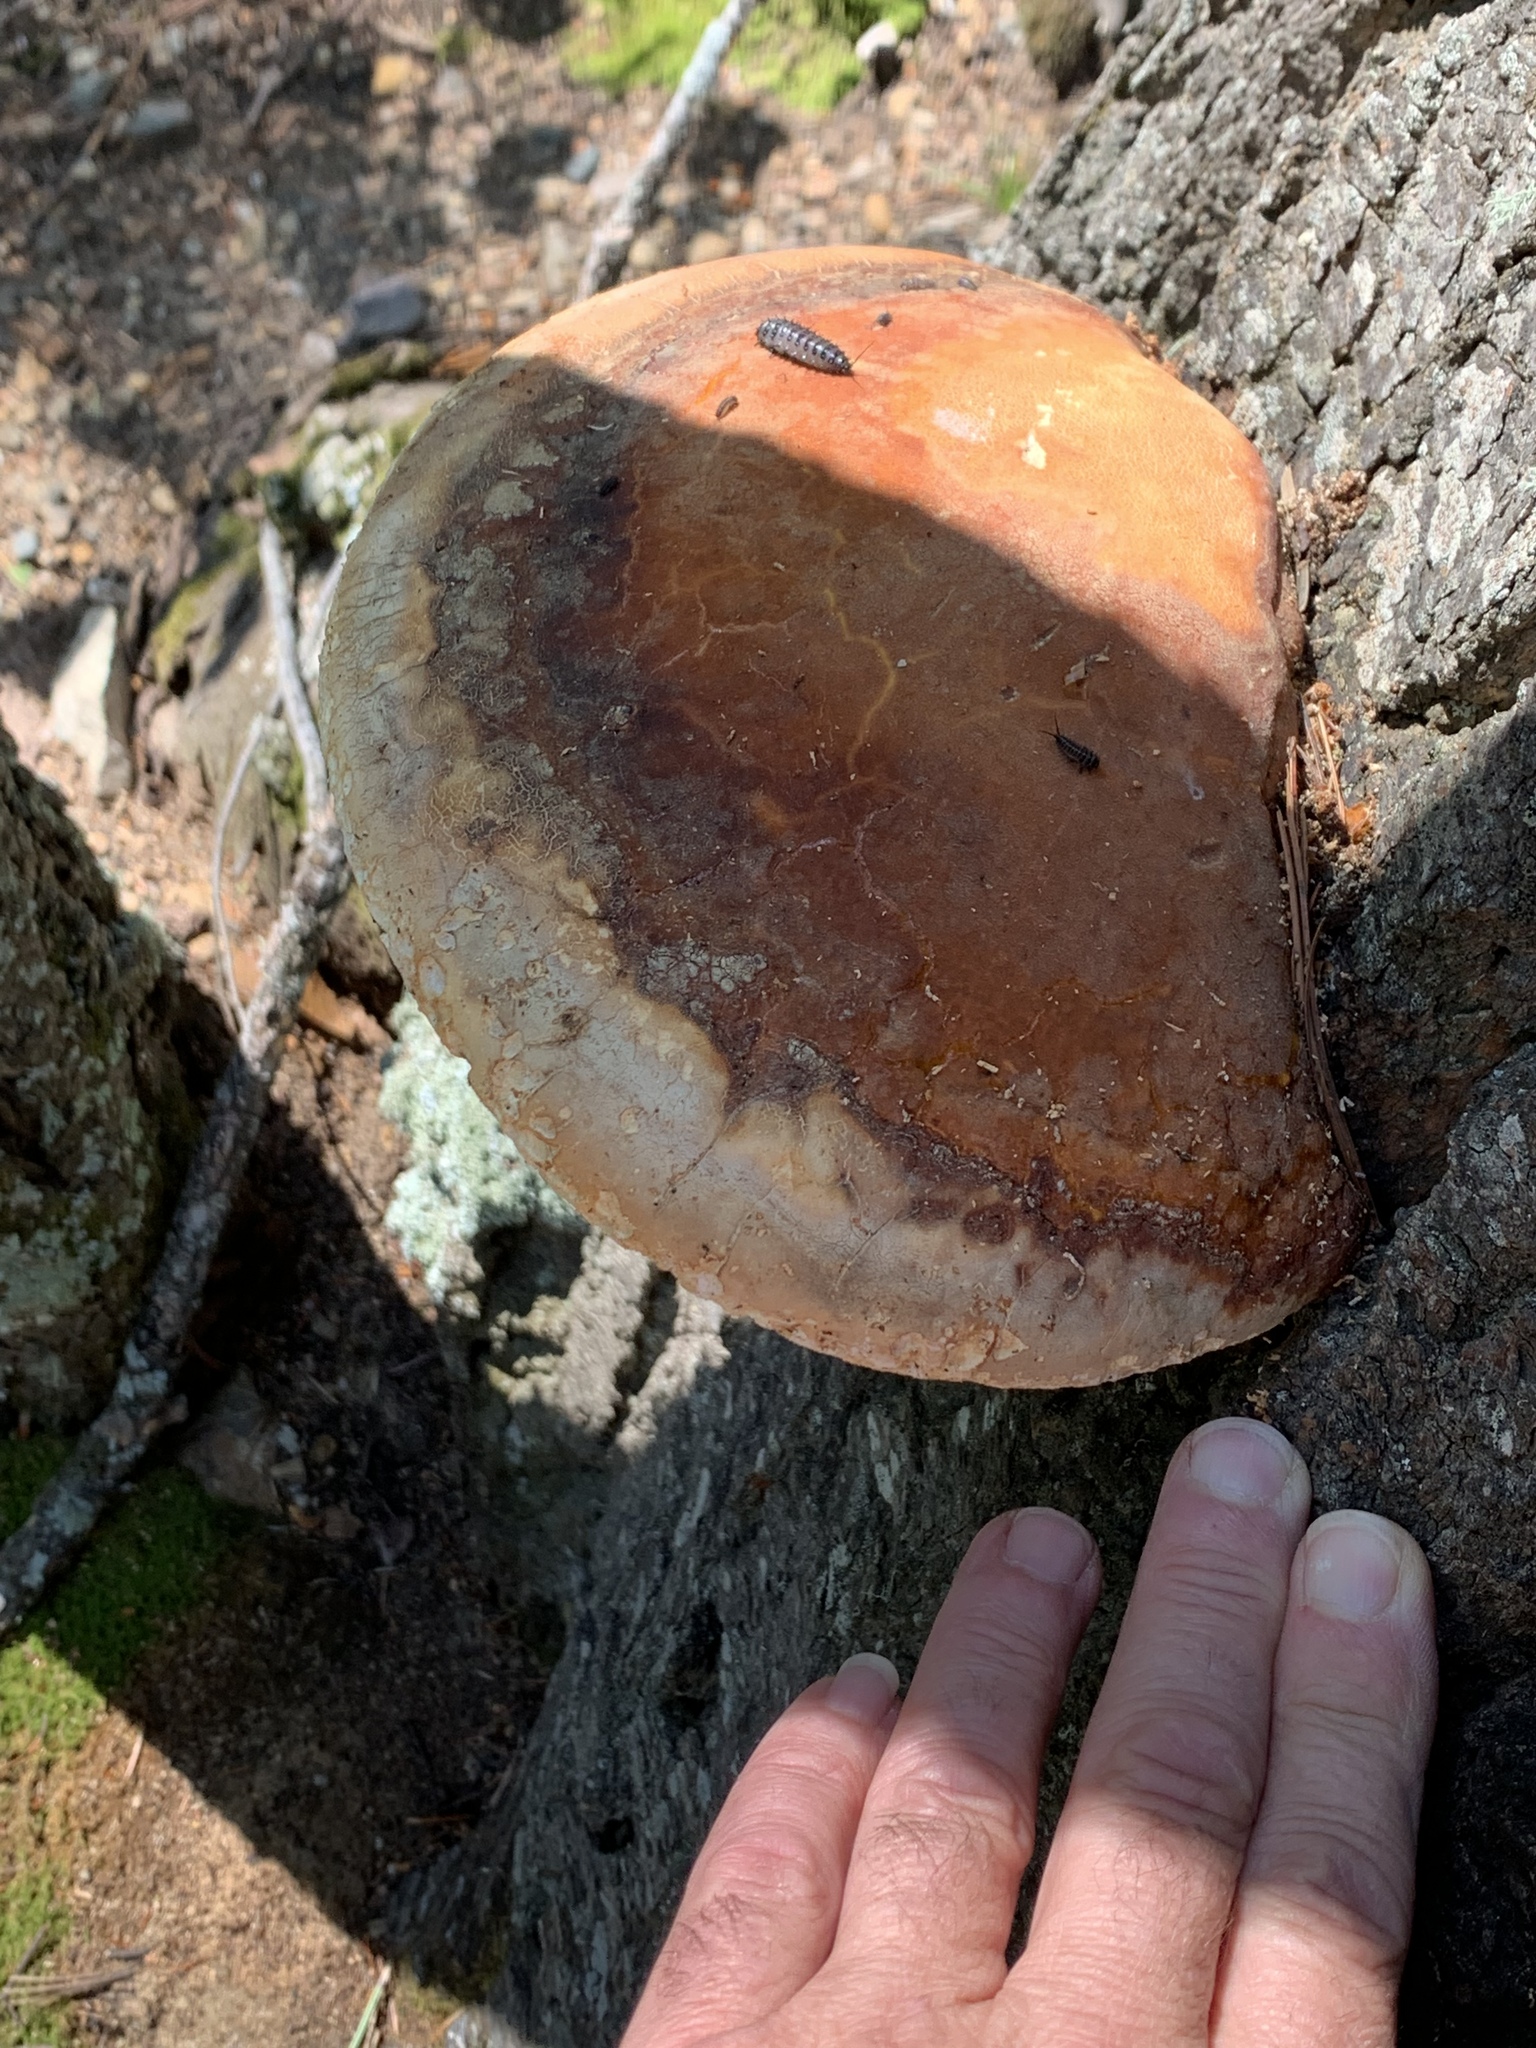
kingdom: Fungi
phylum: Basidiomycota
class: Agaricomycetes
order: Polyporales
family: Fomitopsidaceae
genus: Fomitopsis
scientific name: Fomitopsis schrenkii
